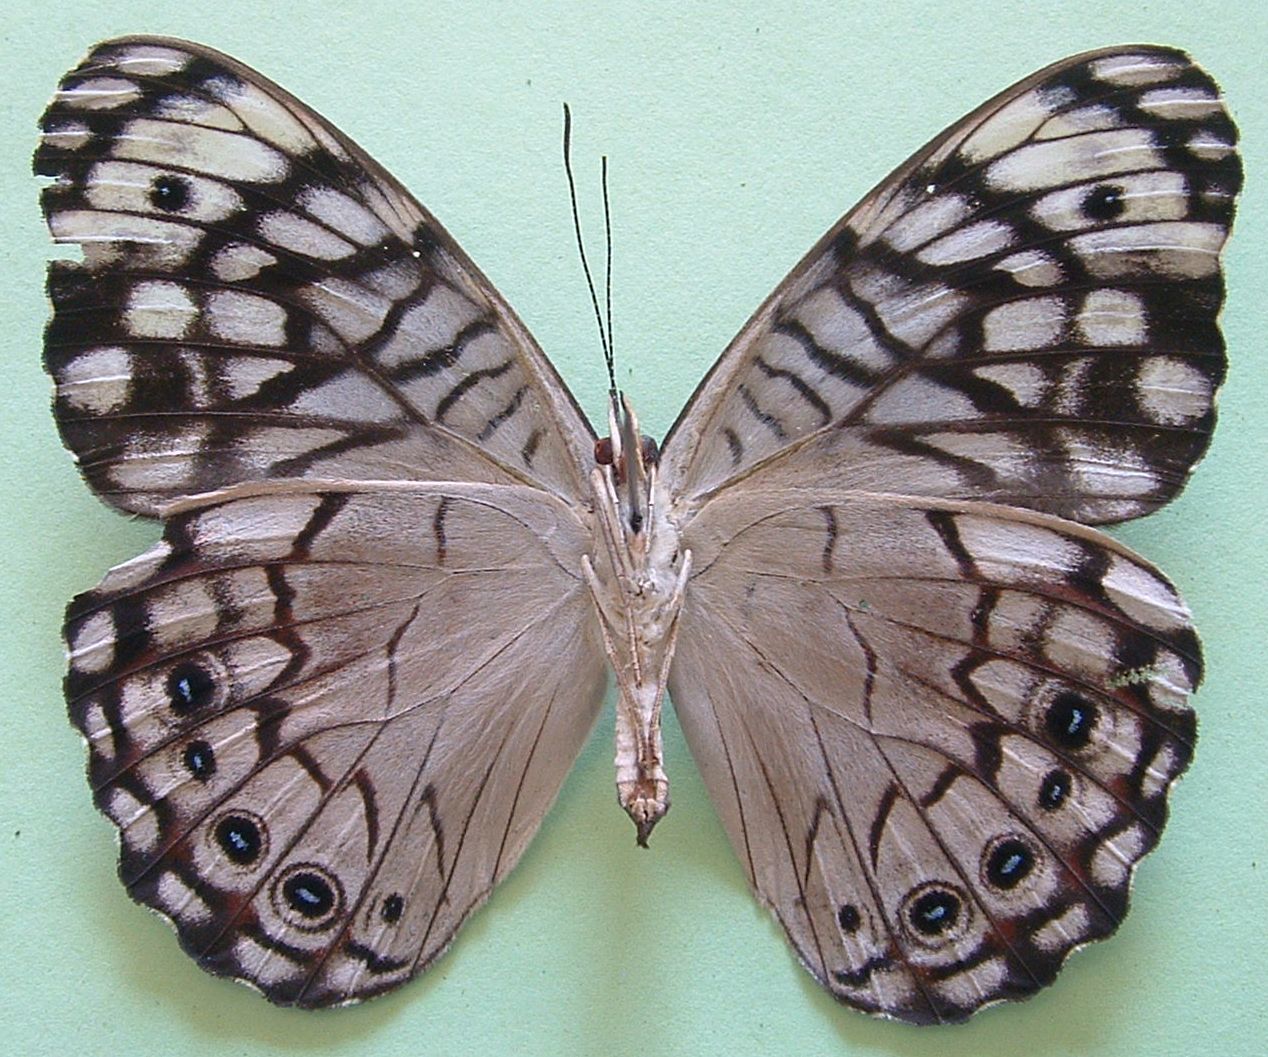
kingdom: Animalia
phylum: Arthropoda
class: Insecta
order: Lepidoptera
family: Nymphalidae
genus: Hamadryas
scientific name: Hamadryas atlantis
